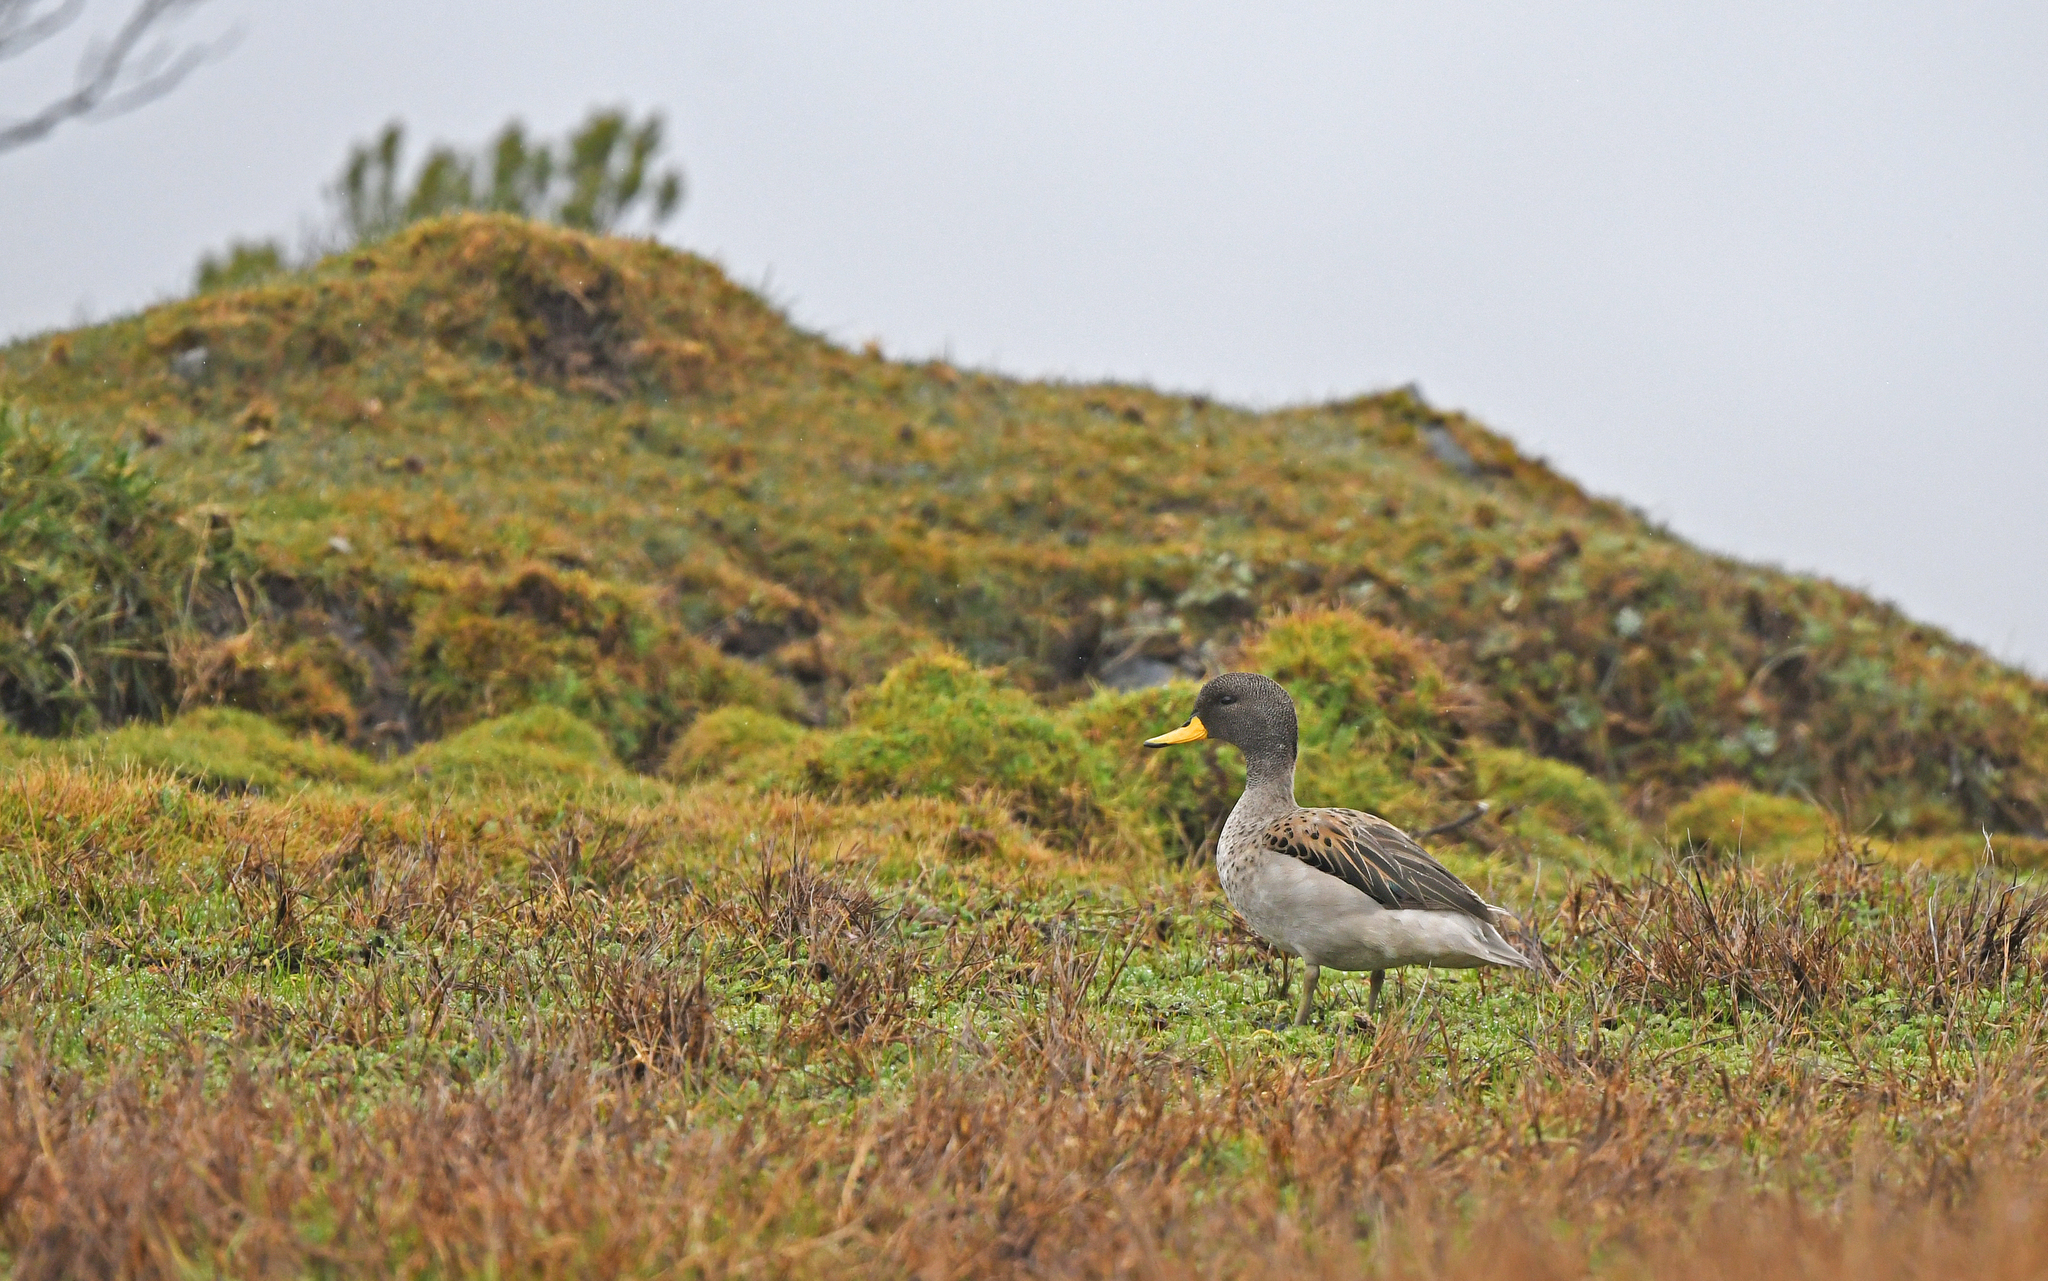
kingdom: Animalia
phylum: Chordata
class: Aves
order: Anseriformes
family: Anatidae
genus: Anas
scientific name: Anas flavirostris
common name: Yellow-billed teal
